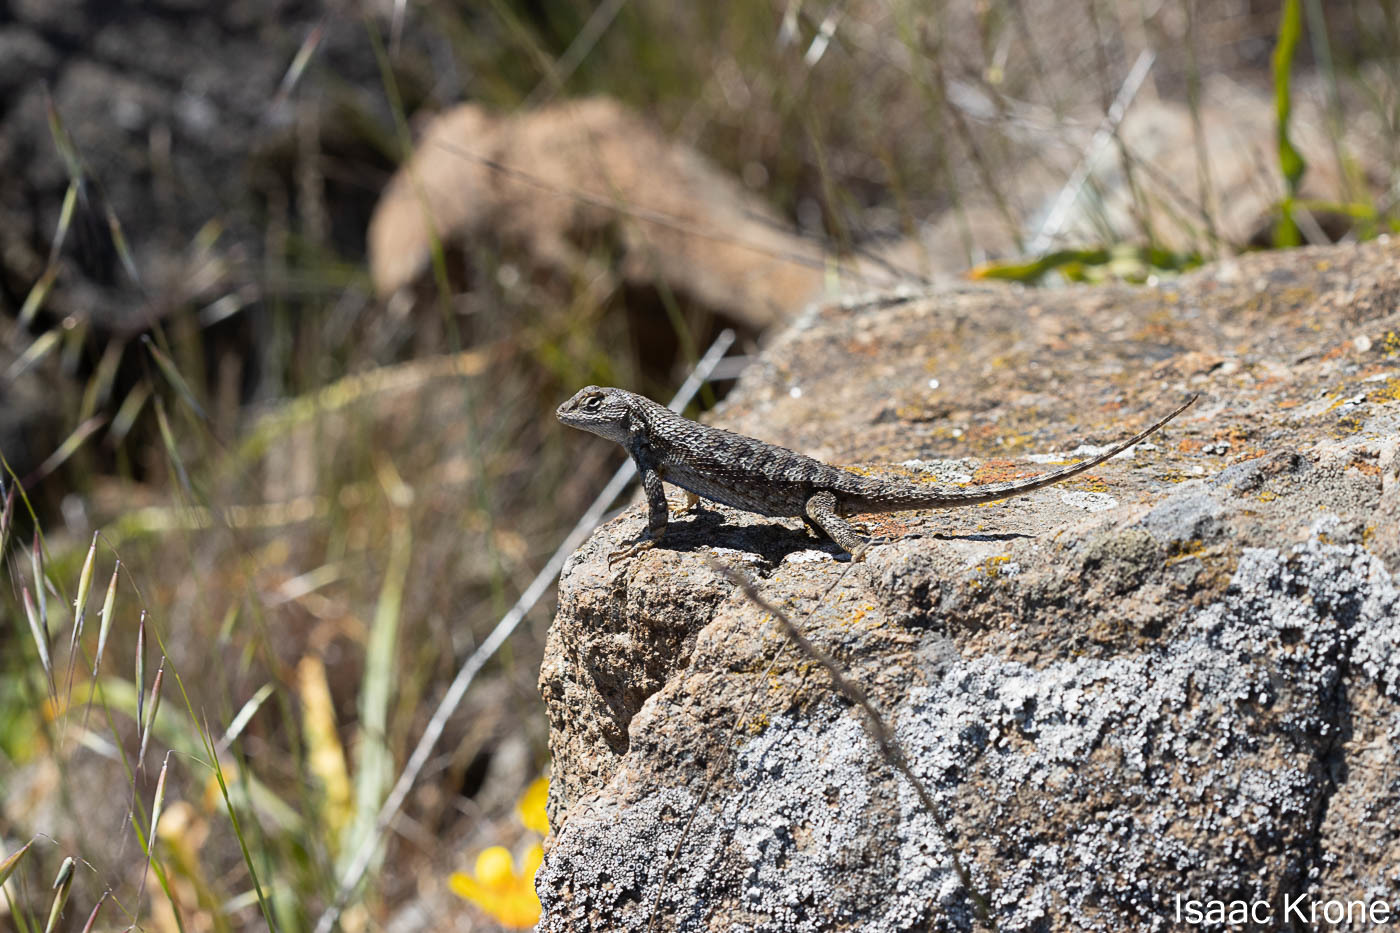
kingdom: Animalia
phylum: Chordata
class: Squamata
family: Phrynosomatidae
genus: Sceloporus
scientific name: Sceloporus occidentalis
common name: Western fence lizard
